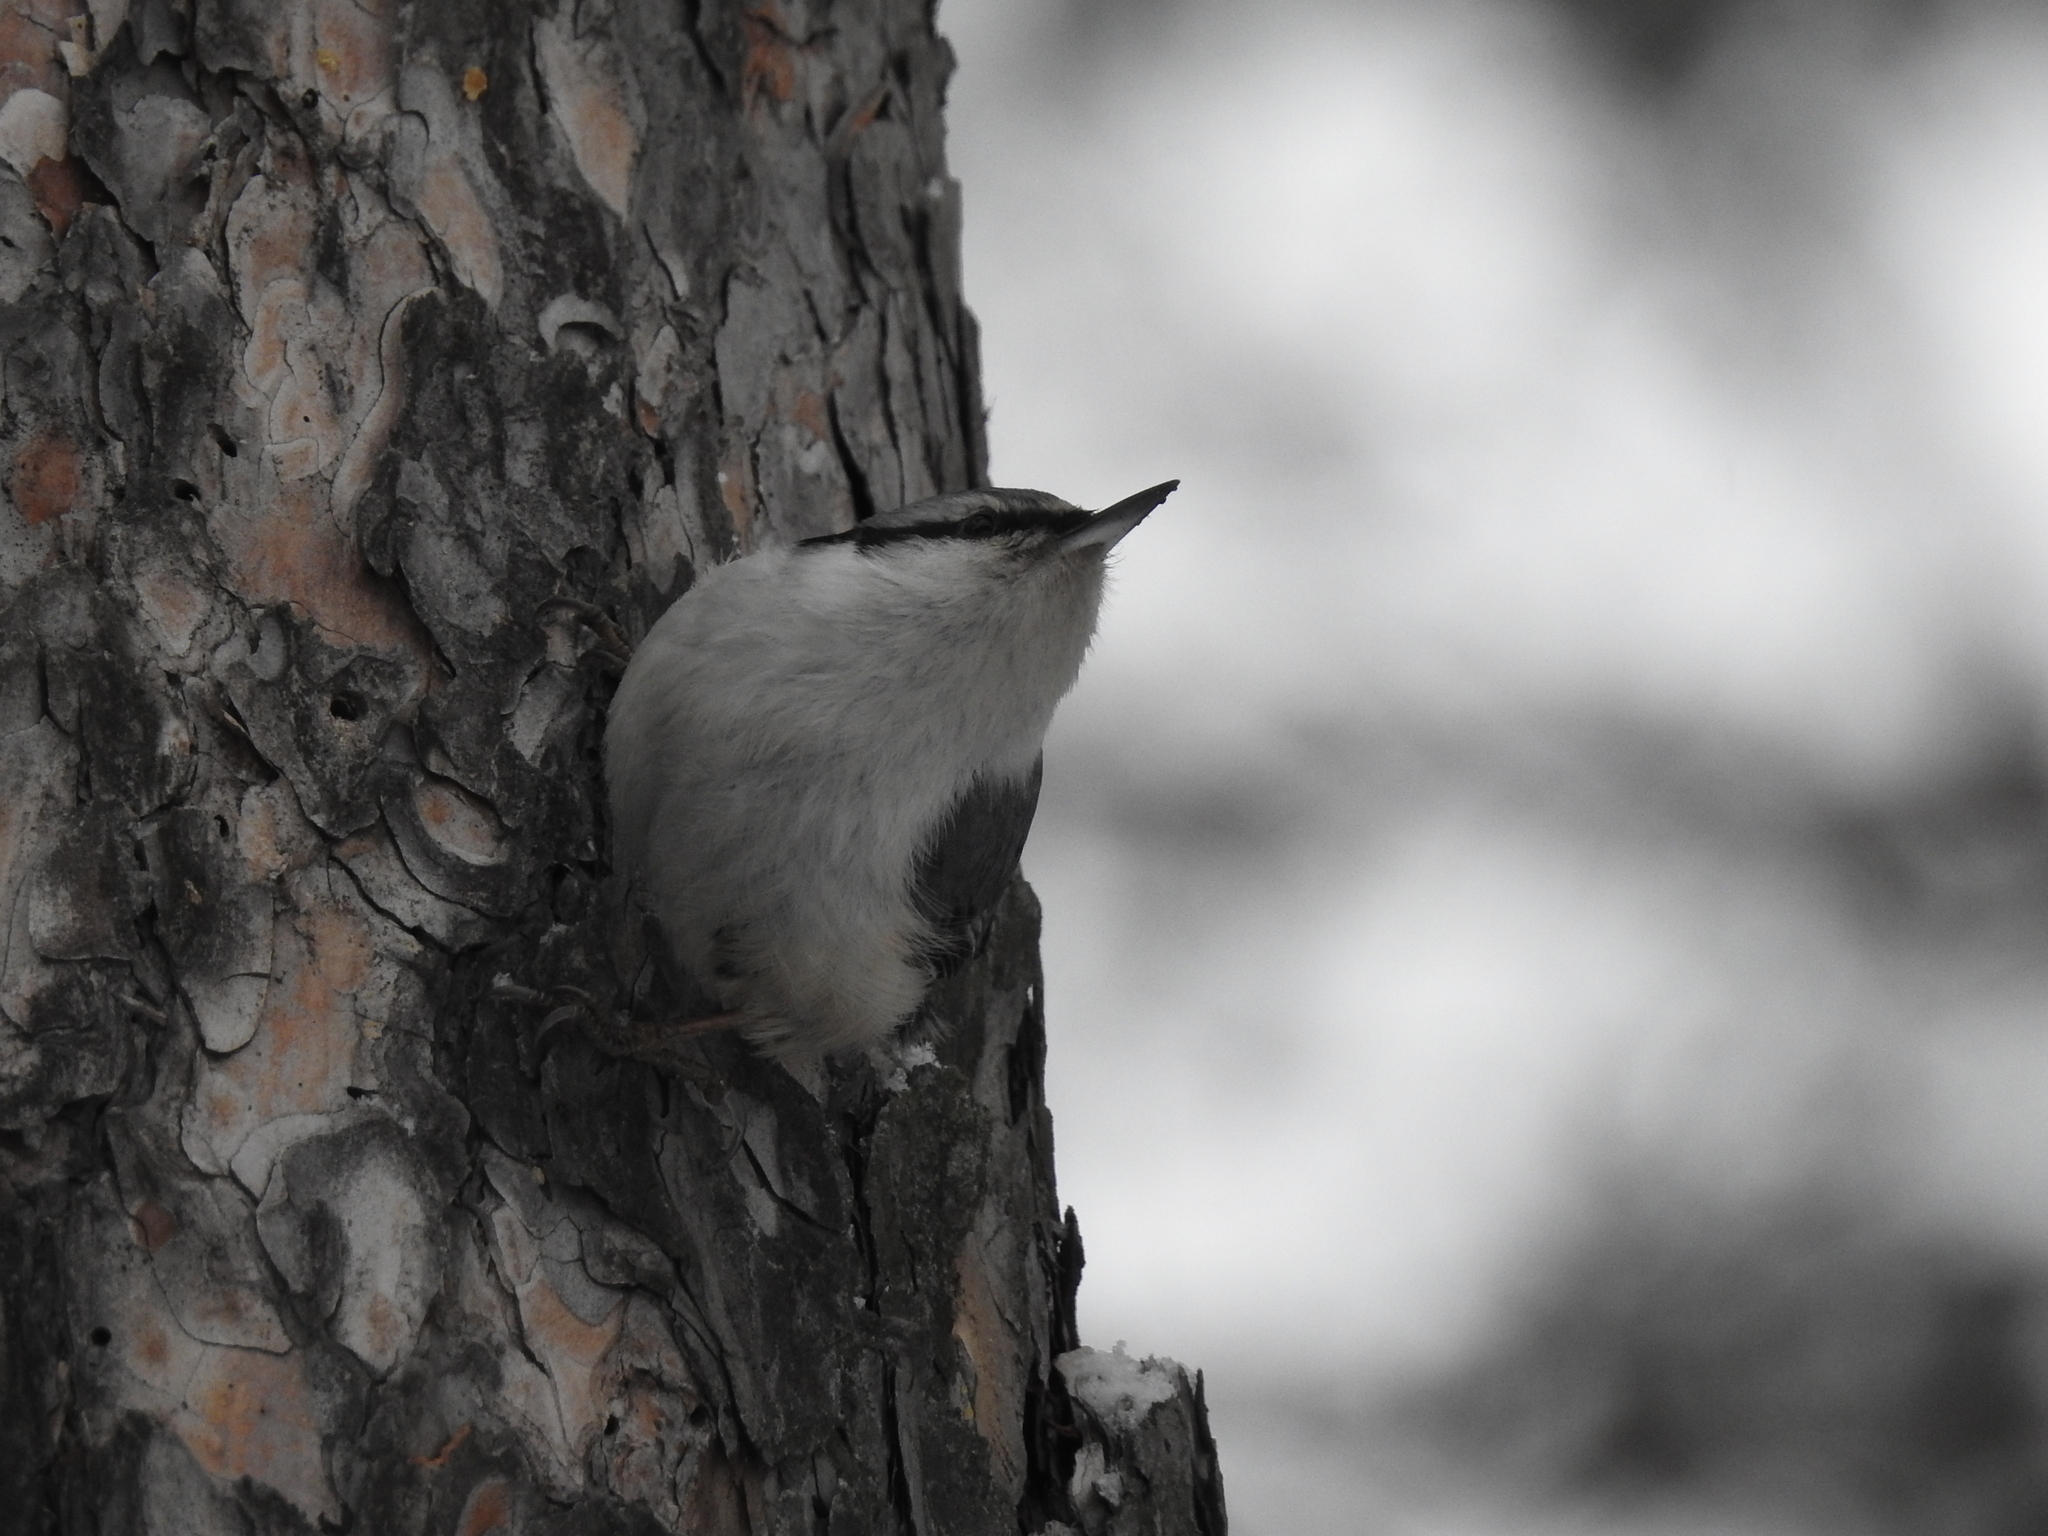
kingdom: Animalia
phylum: Chordata
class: Aves
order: Passeriformes
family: Sittidae
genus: Sitta
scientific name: Sitta europaea
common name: Eurasian nuthatch
